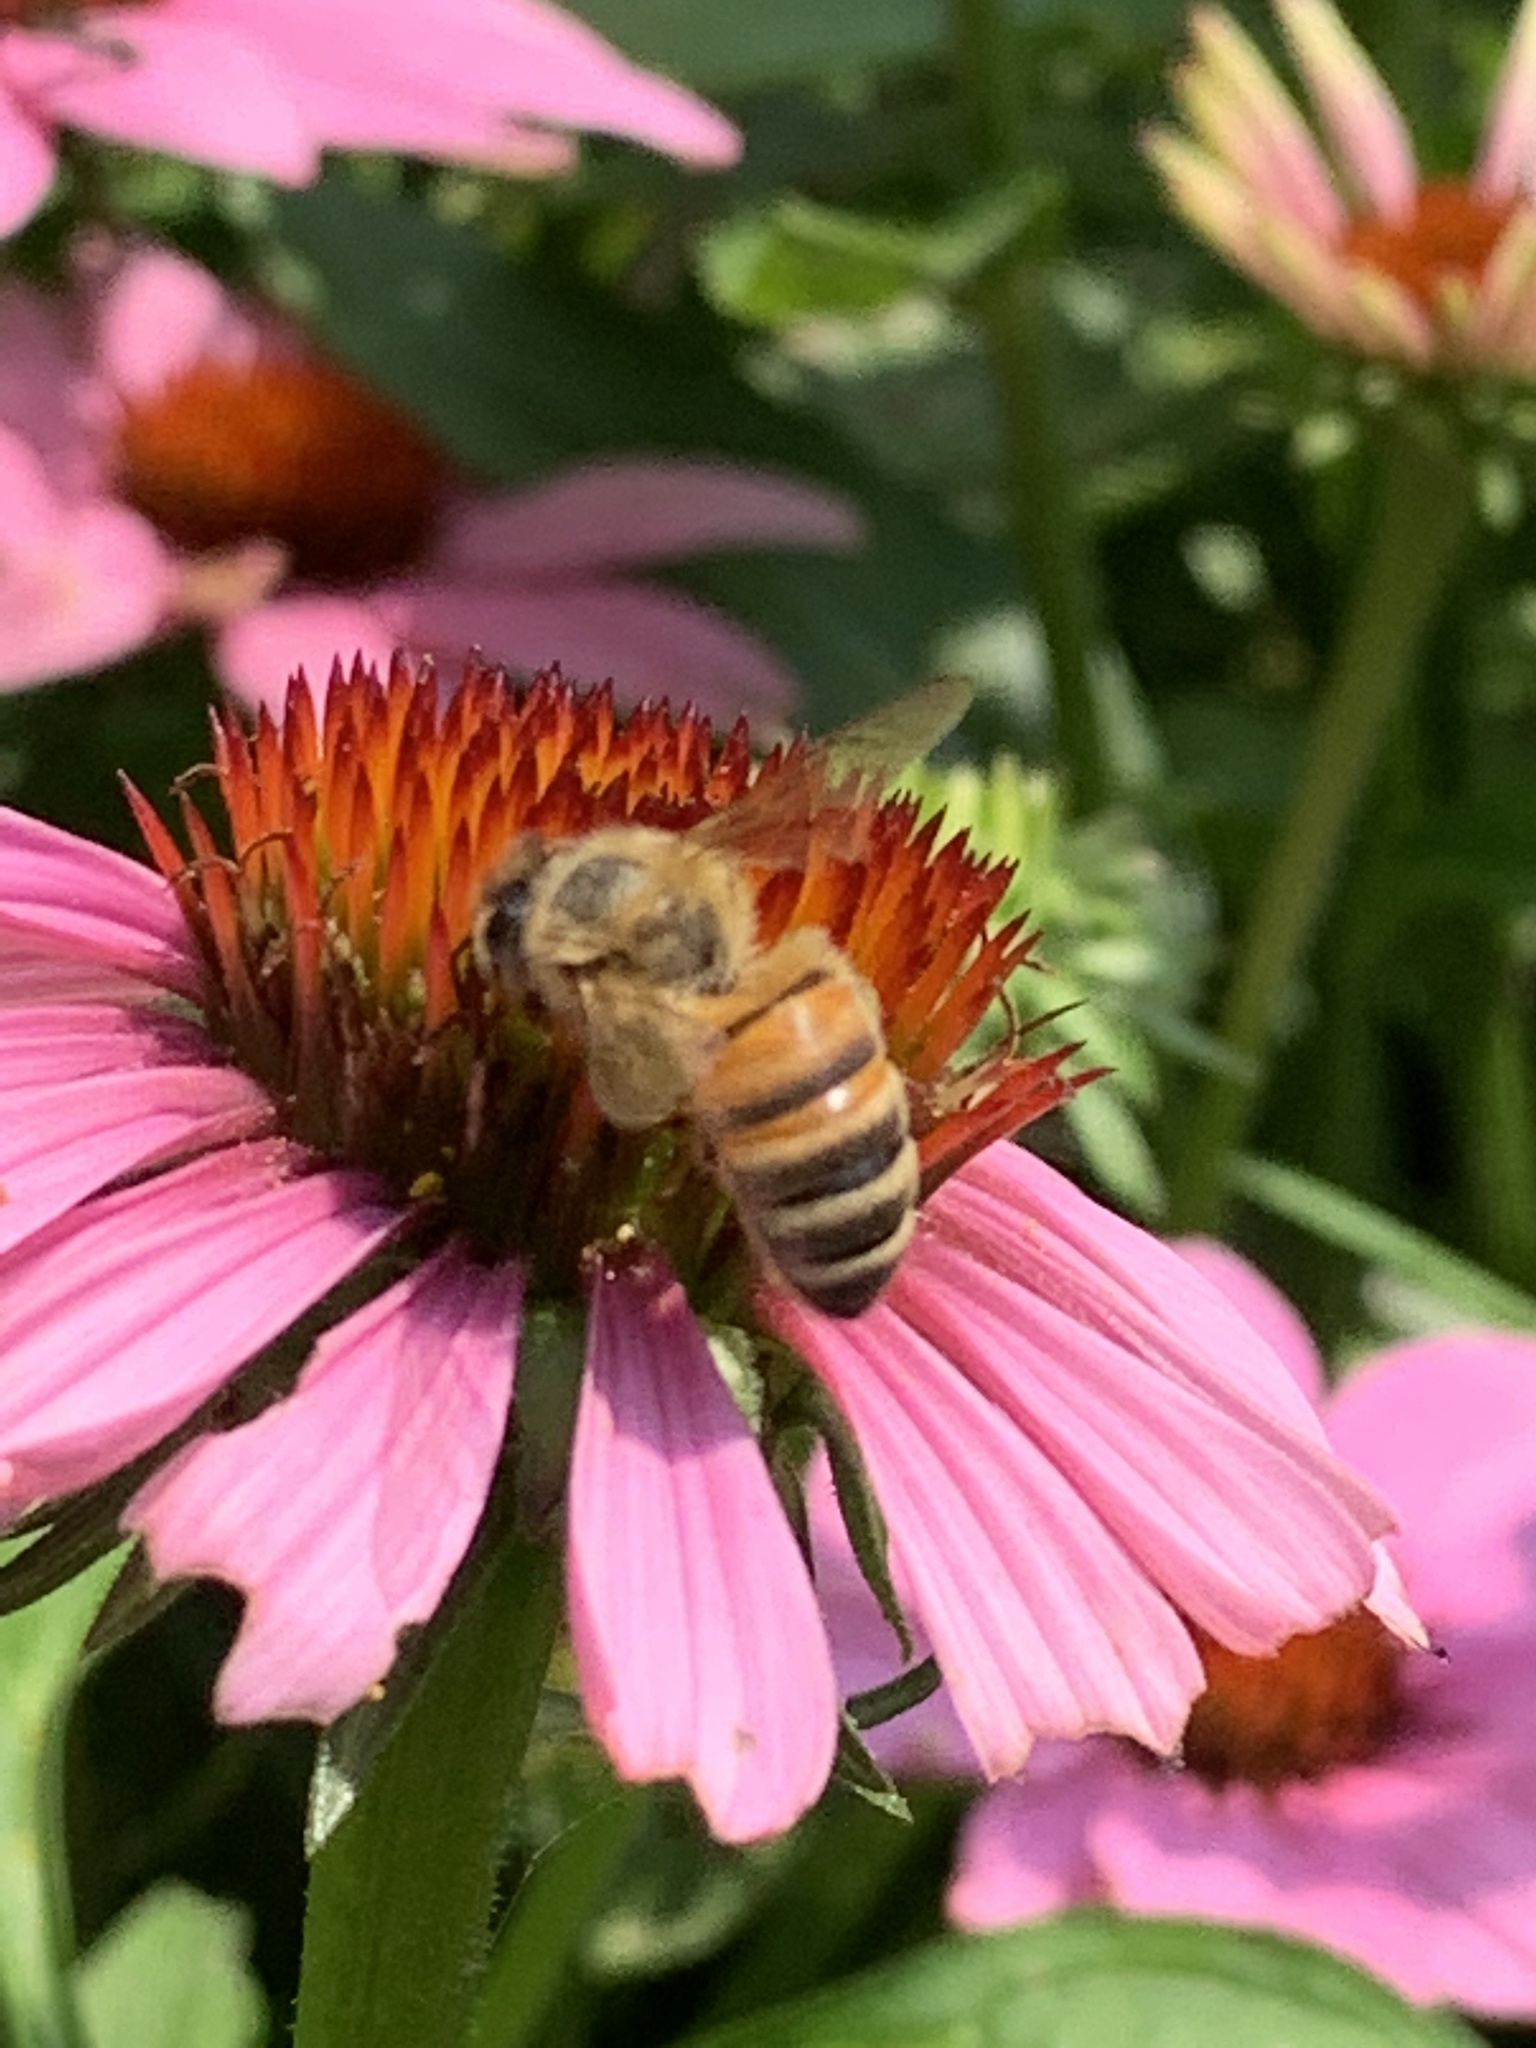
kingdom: Animalia
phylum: Arthropoda
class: Insecta
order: Hymenoptera
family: Apidae
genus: Apis
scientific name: Apis mellifera
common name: Honey bee
